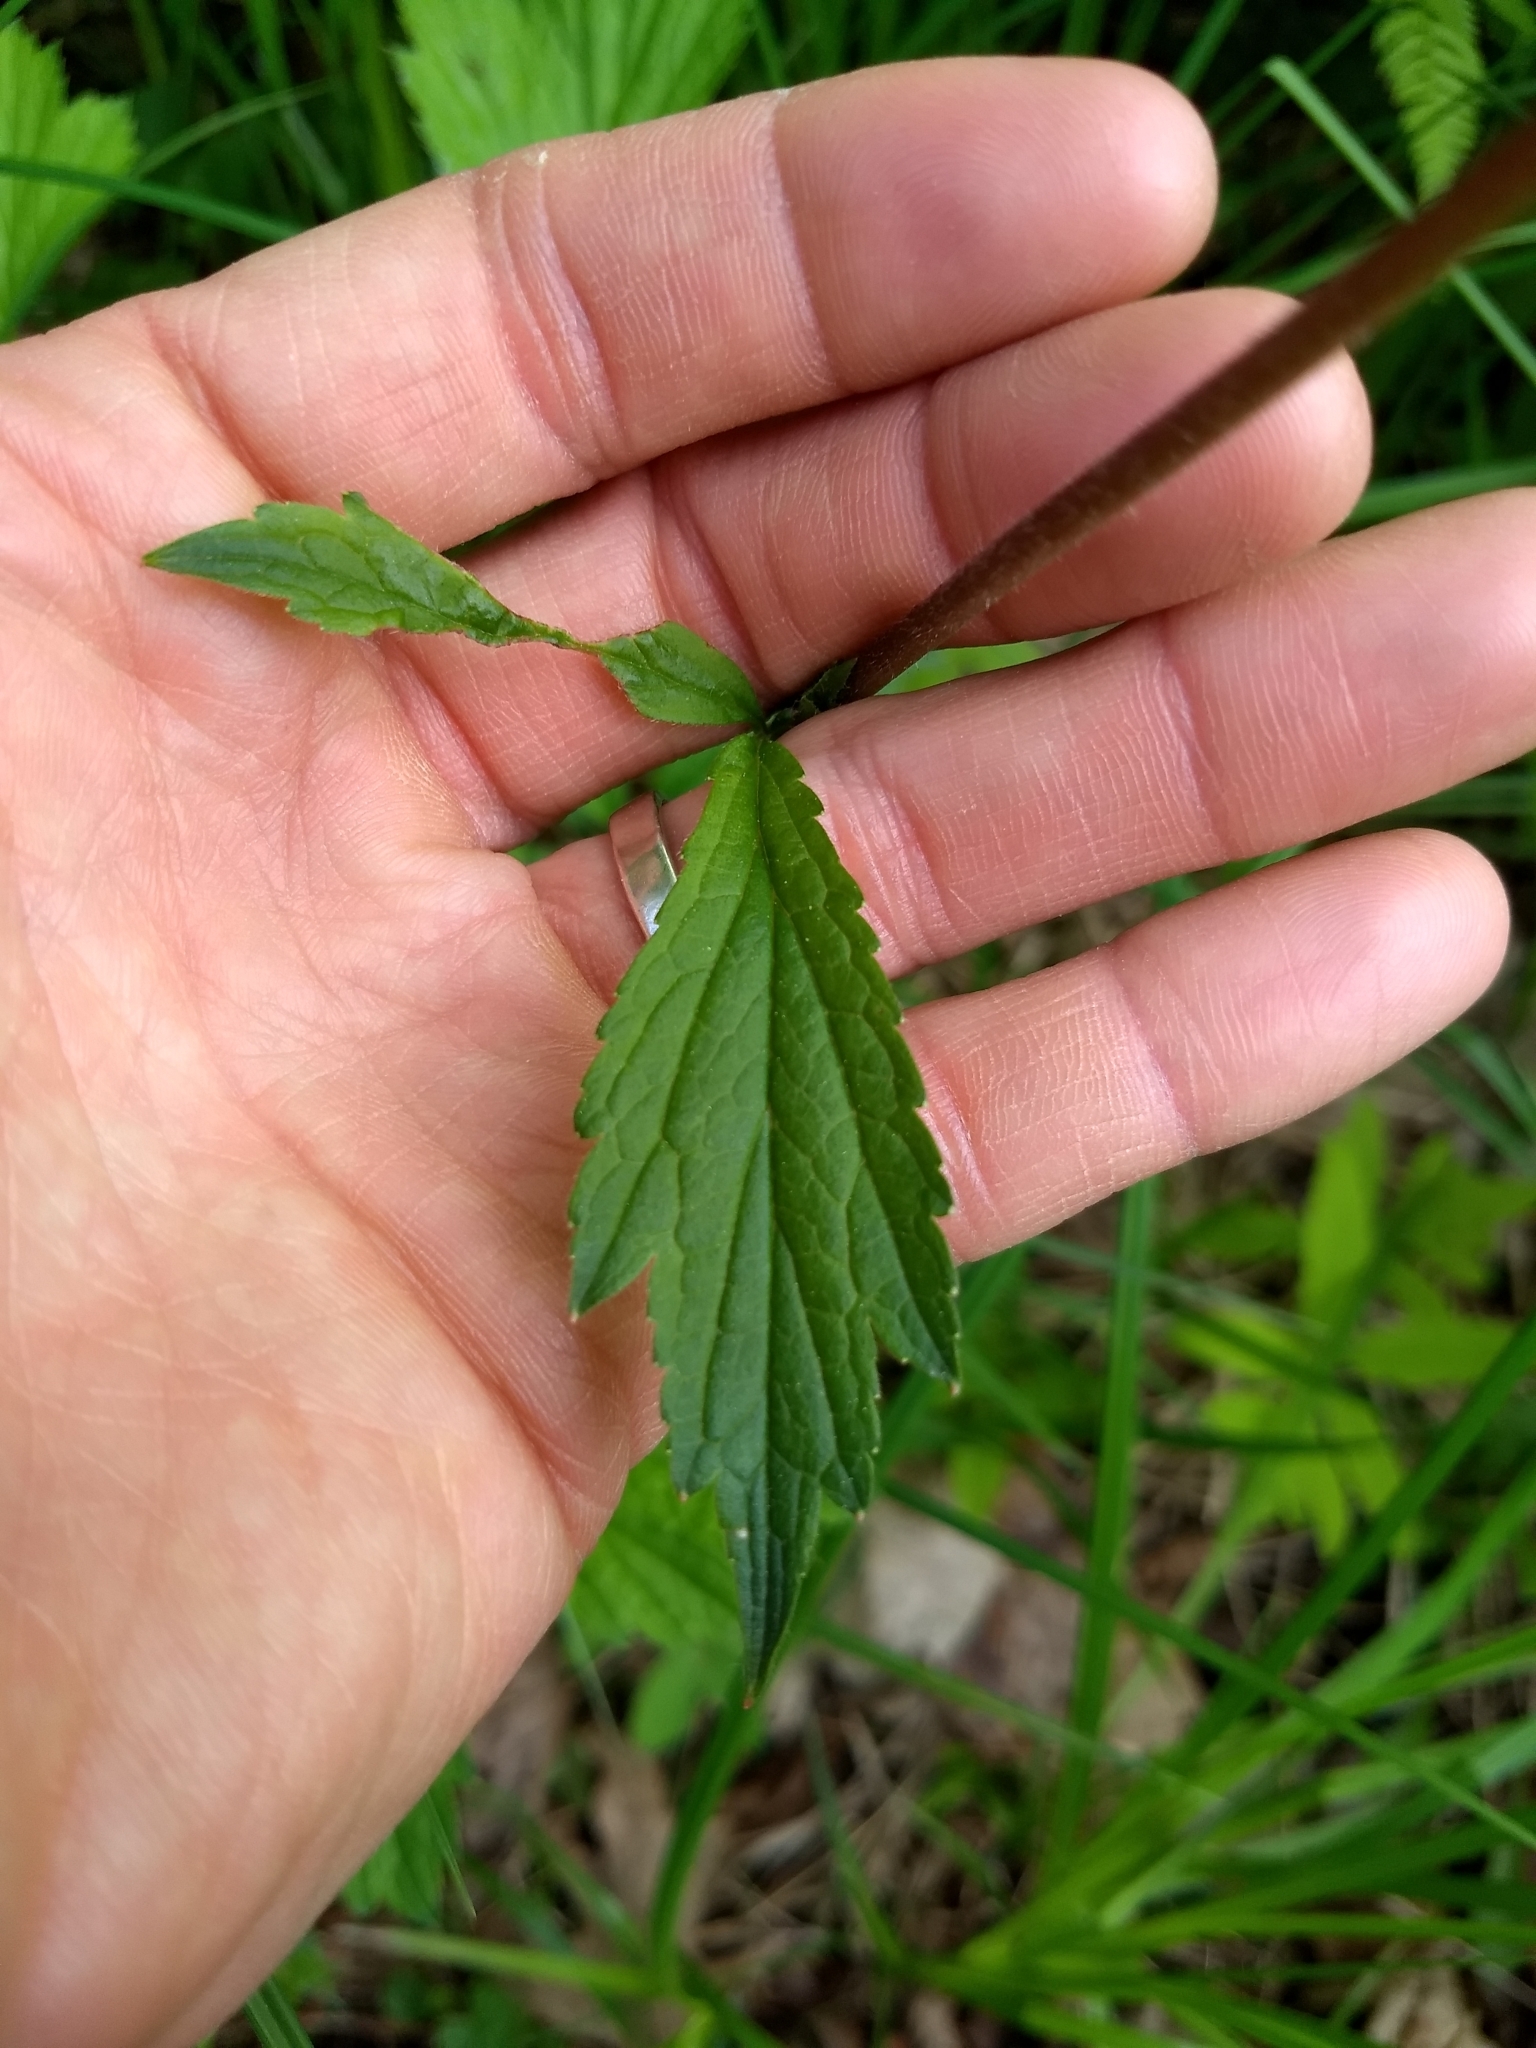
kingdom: Plantae
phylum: Tracheophyta
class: Magnoliopsida
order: Rosales
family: Rosaceae
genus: Geum
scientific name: Geum rivale
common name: Water avens
